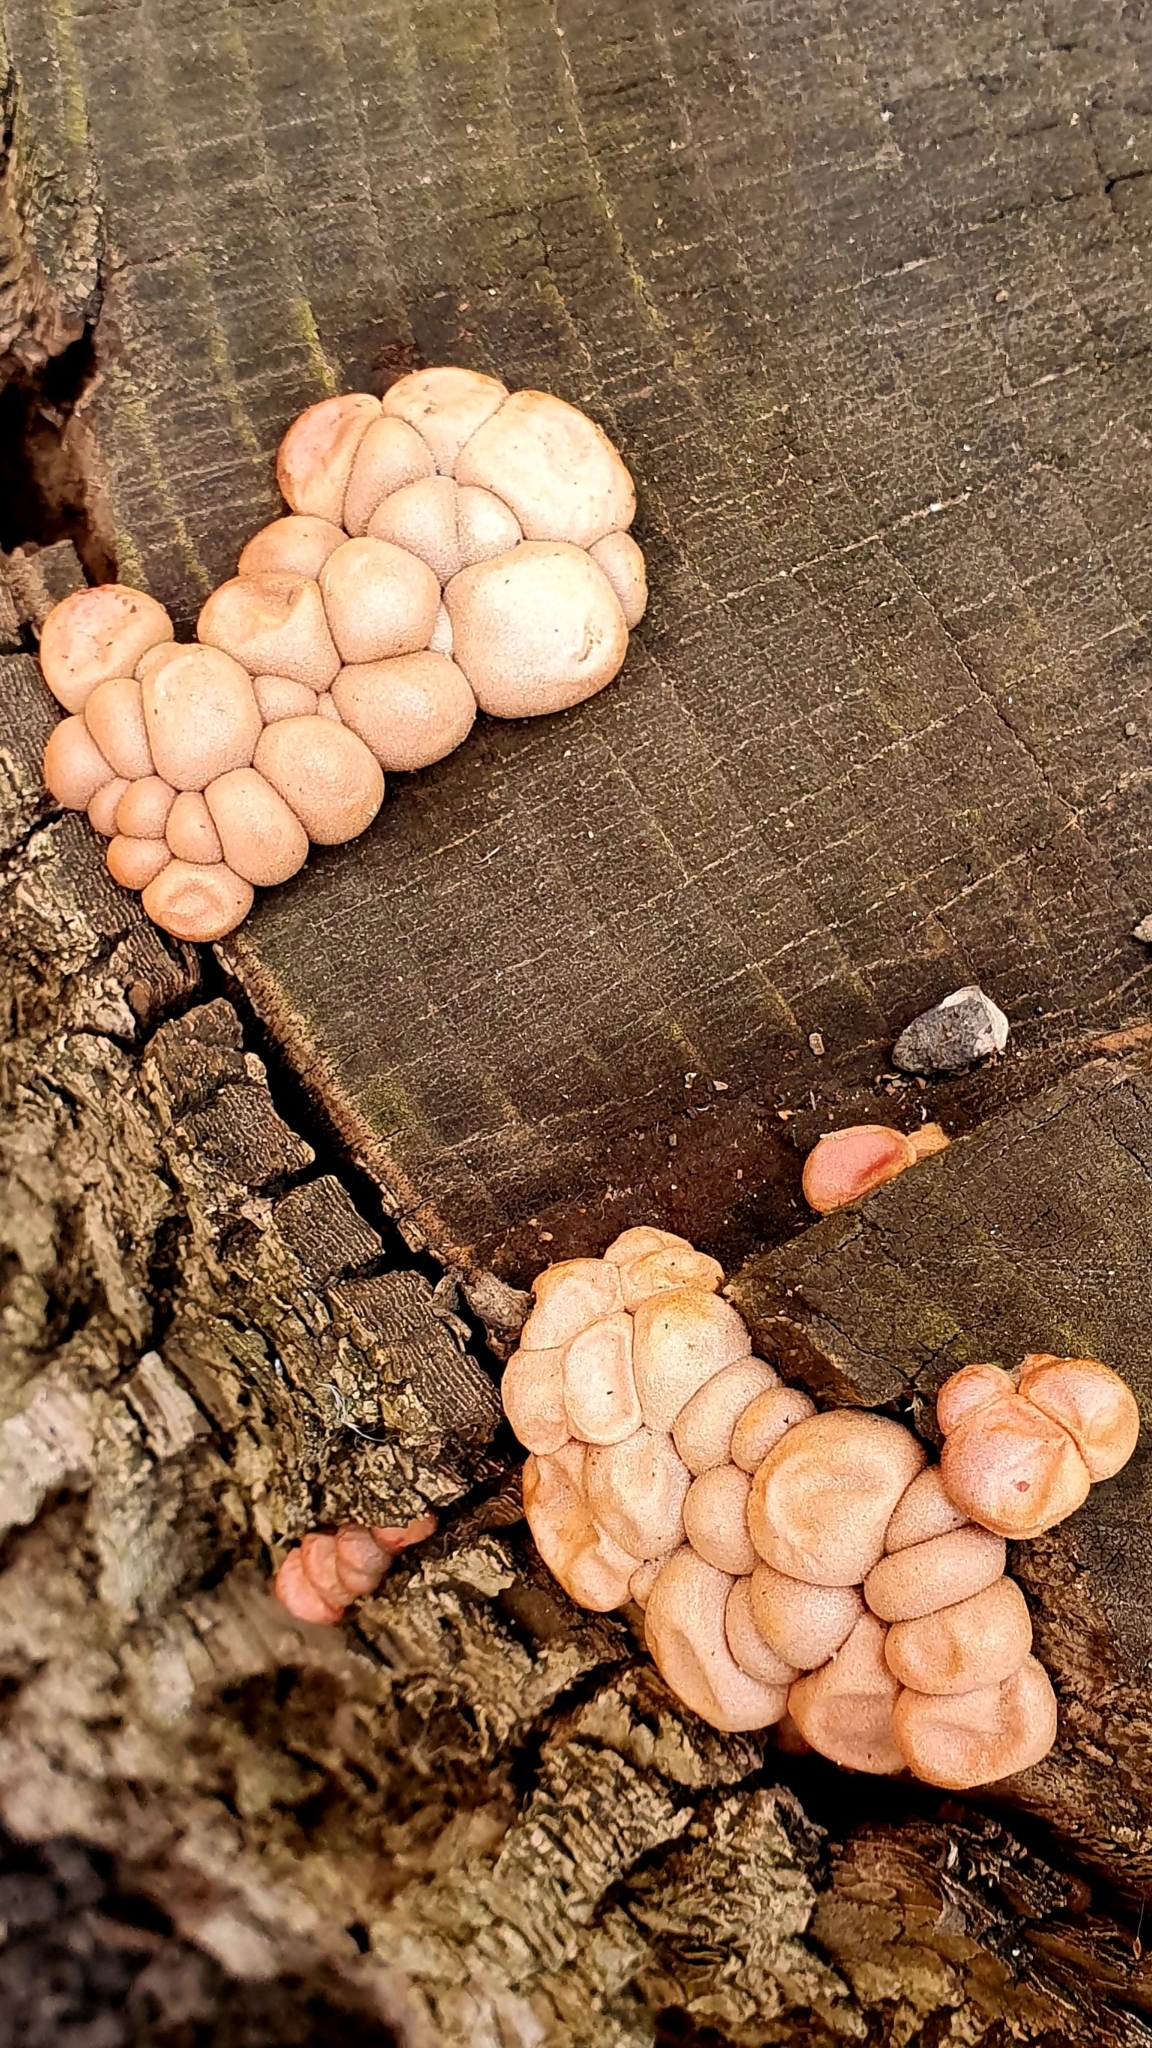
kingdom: Protozoa
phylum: Mycetozoa
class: Myxomycetes
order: Cribrariales
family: Tubiferaceae
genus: Lycogala
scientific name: Lycogala
